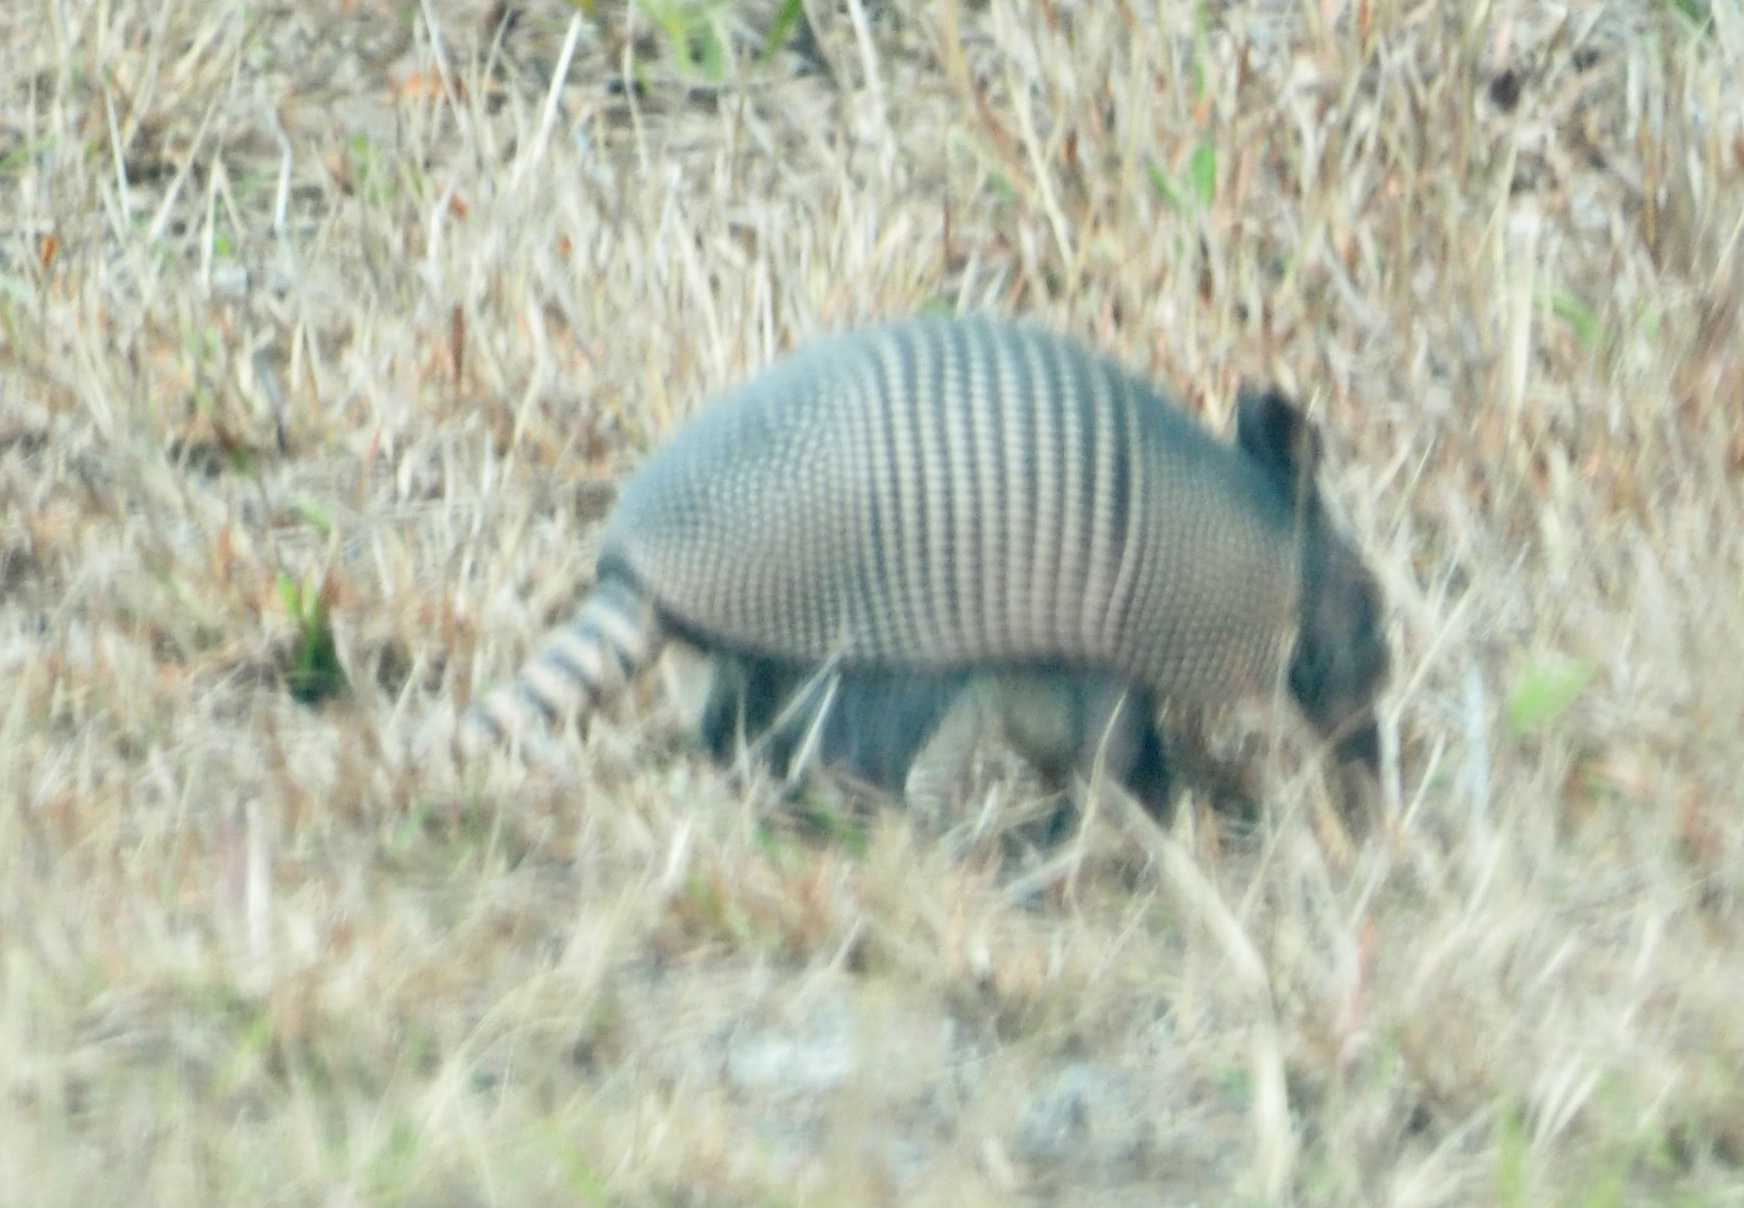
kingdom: Animalia
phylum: Chordata
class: Mammalia
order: Cingulata
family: Dasypodidae
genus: Dasypus
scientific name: Dasypus novemcinctus
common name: Nine-banded armadillo
